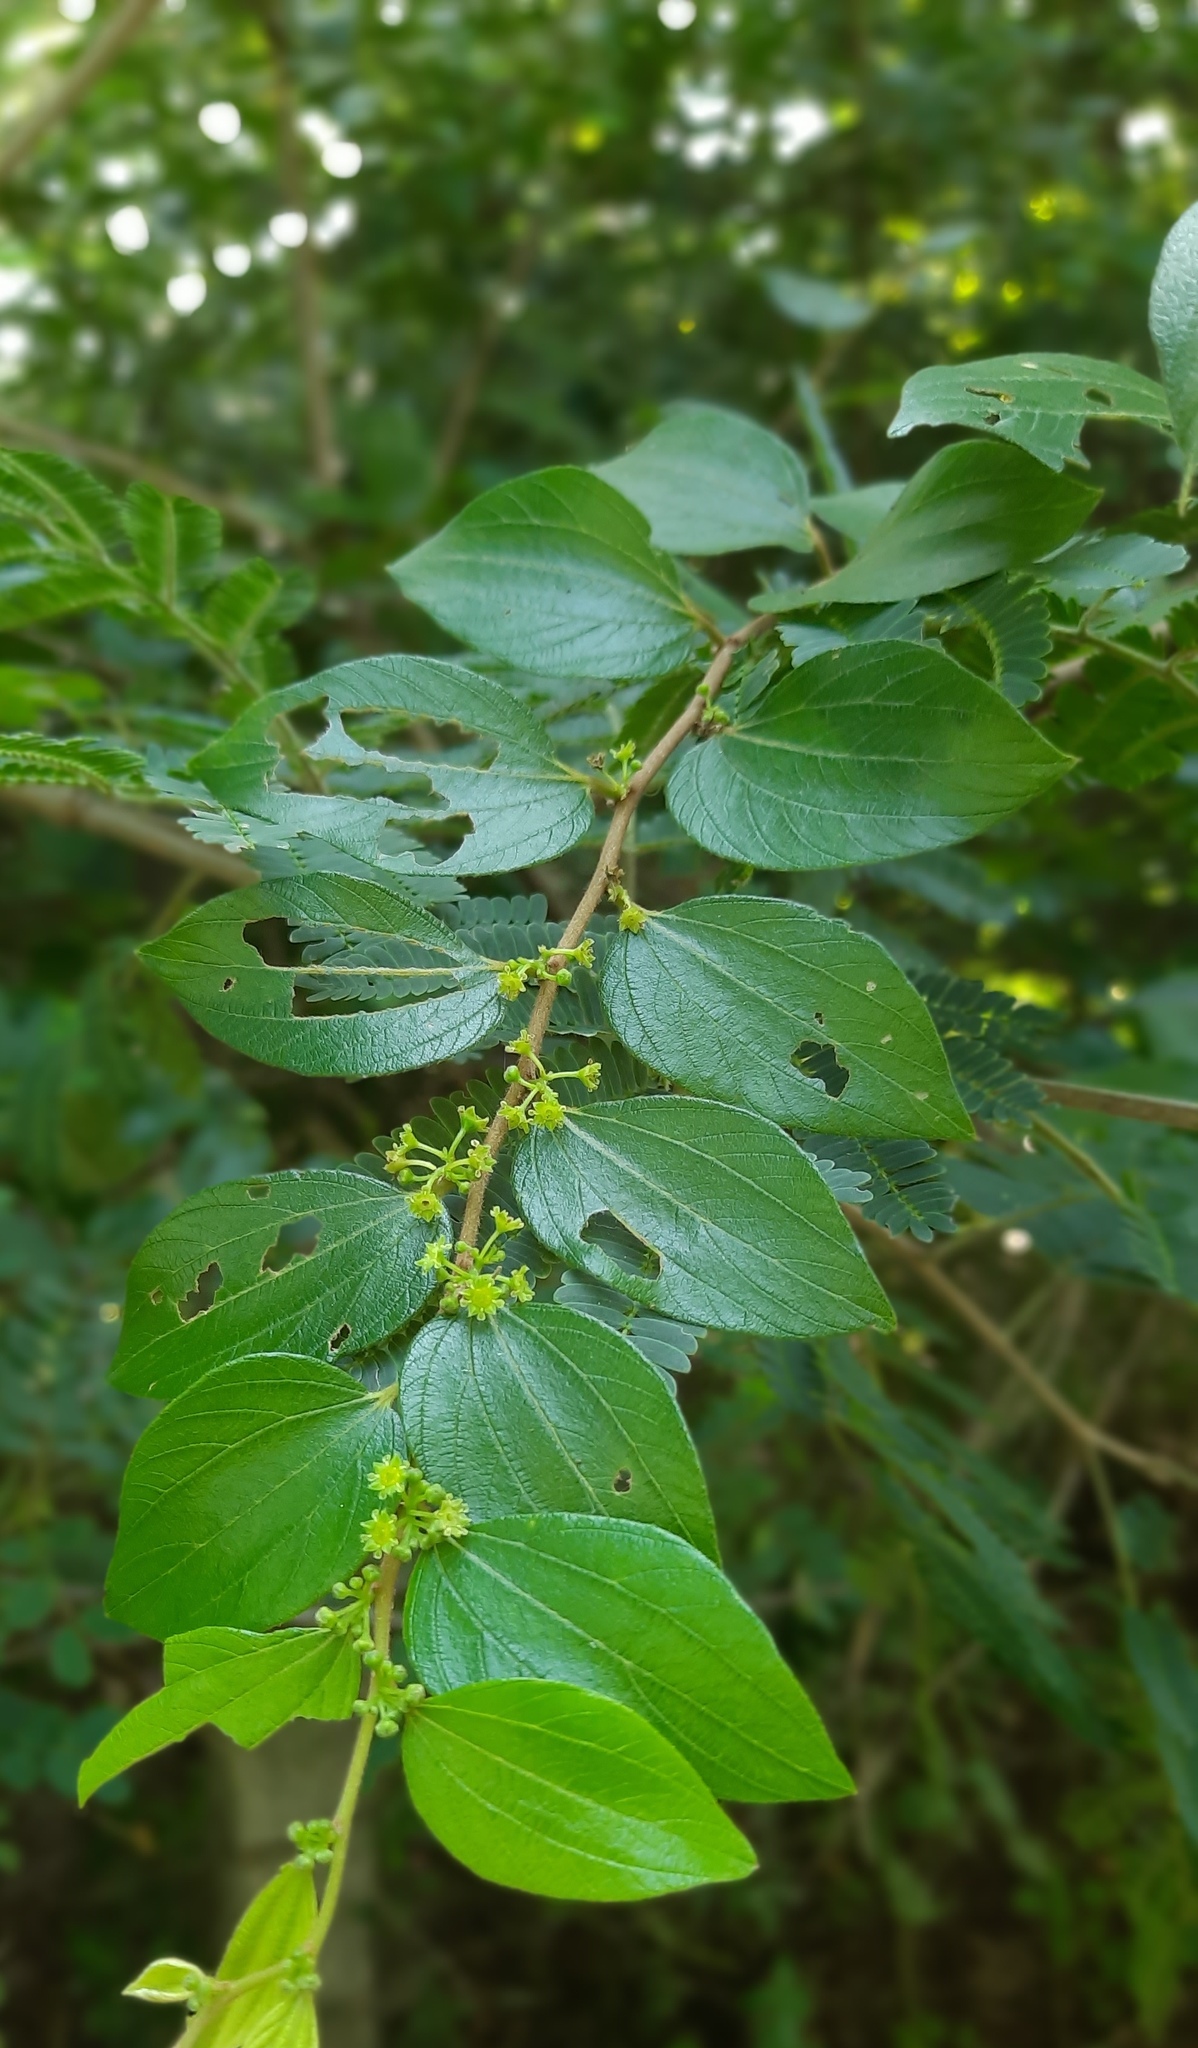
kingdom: Plantae
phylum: Tracheophyta
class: Magnoliopsida
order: Rosales
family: Rhamnaceae
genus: Ziziphus
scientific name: Ziziphus oenopolia
